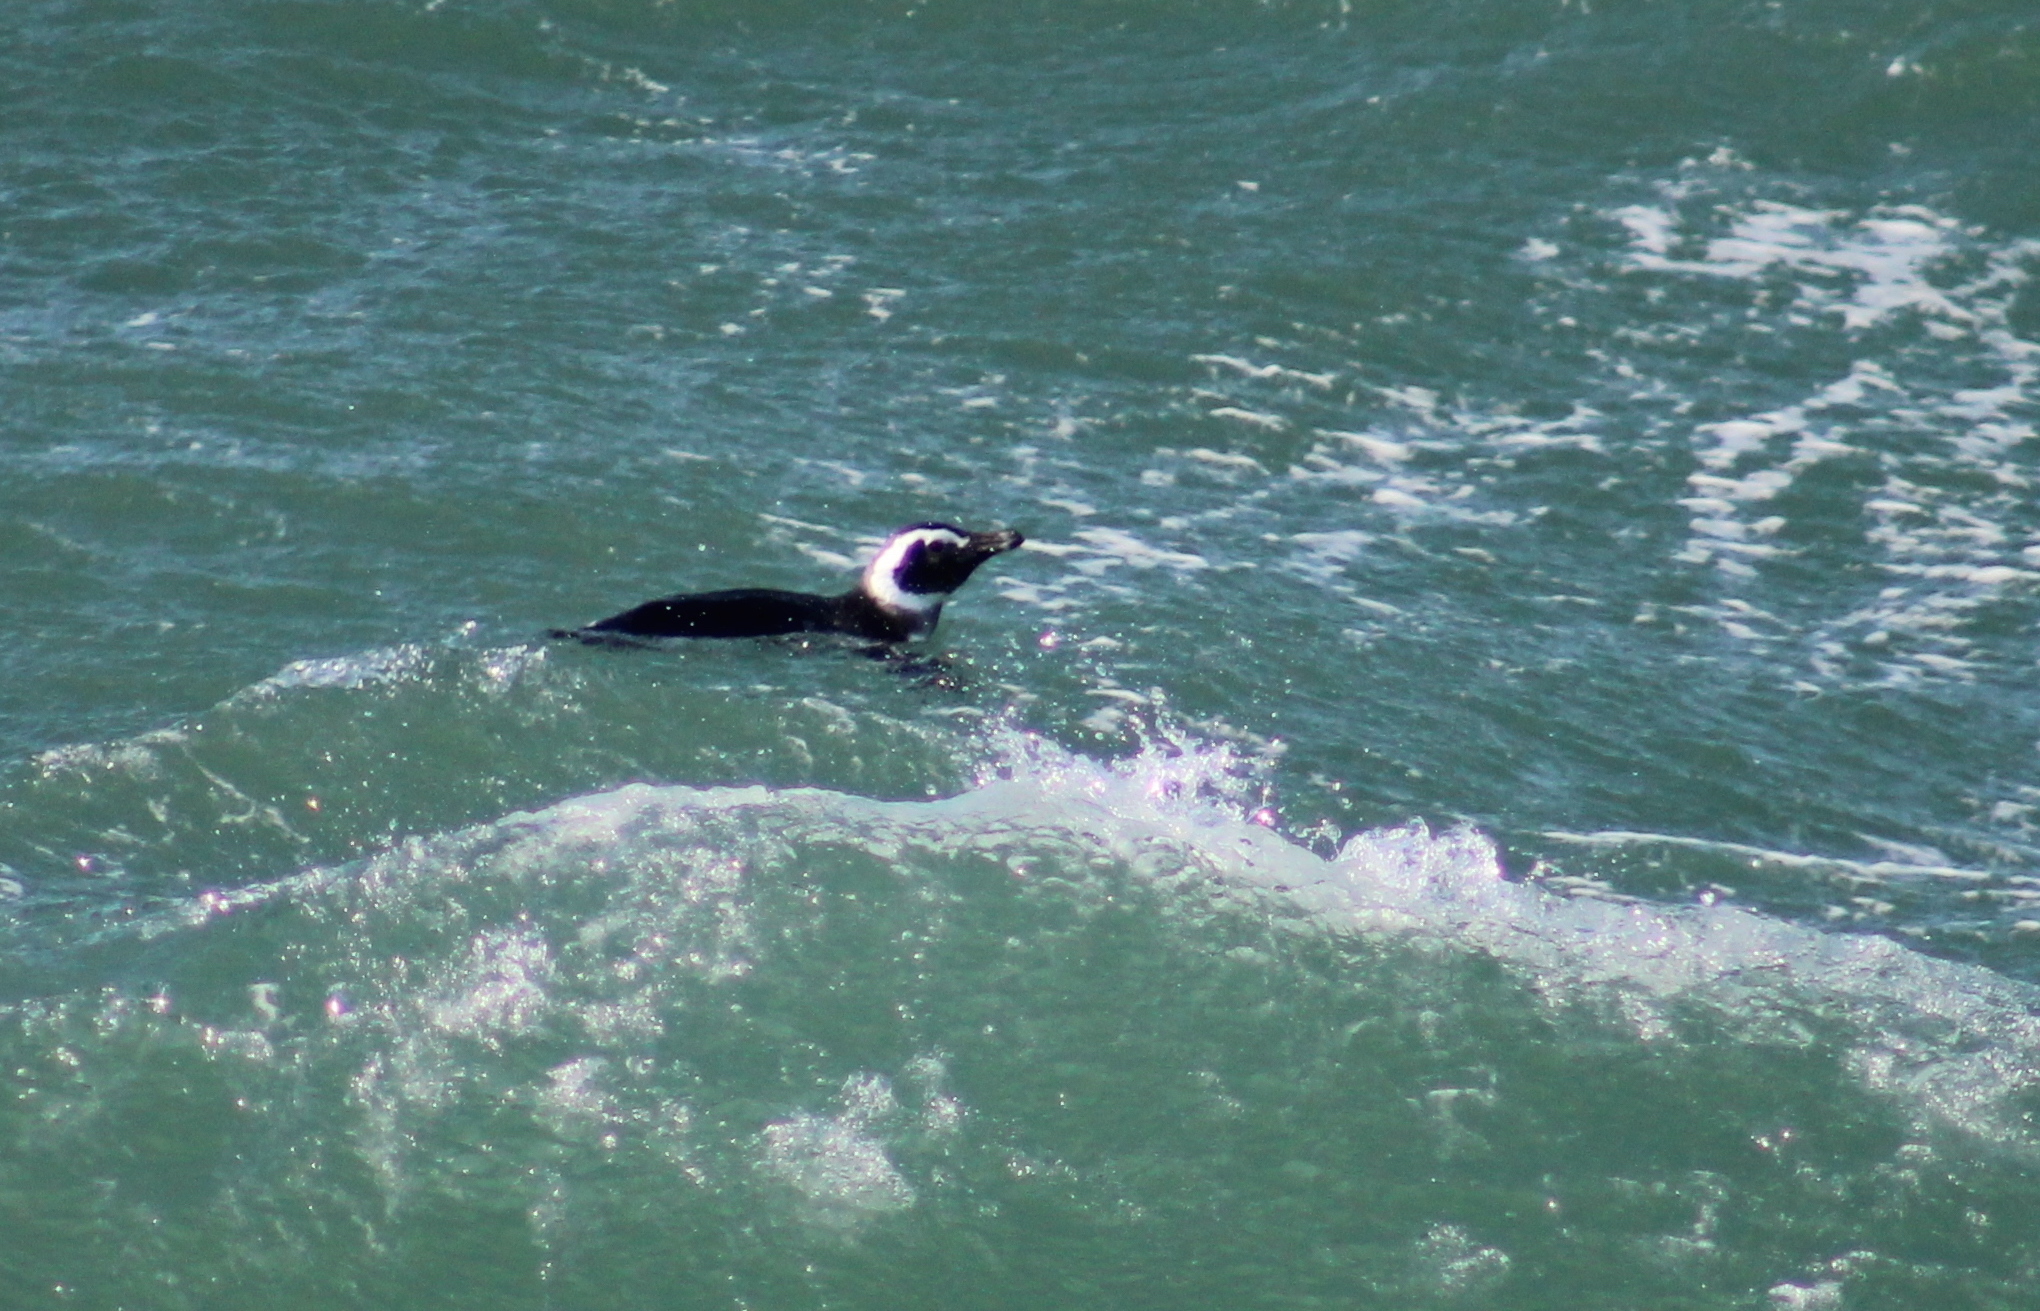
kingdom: Animalia
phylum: Chordata
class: Aves
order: Sphenisciformes
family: Spheniscidae
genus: Spheniscus
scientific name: Spheniscus magellanicus
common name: Magellanic penguin
